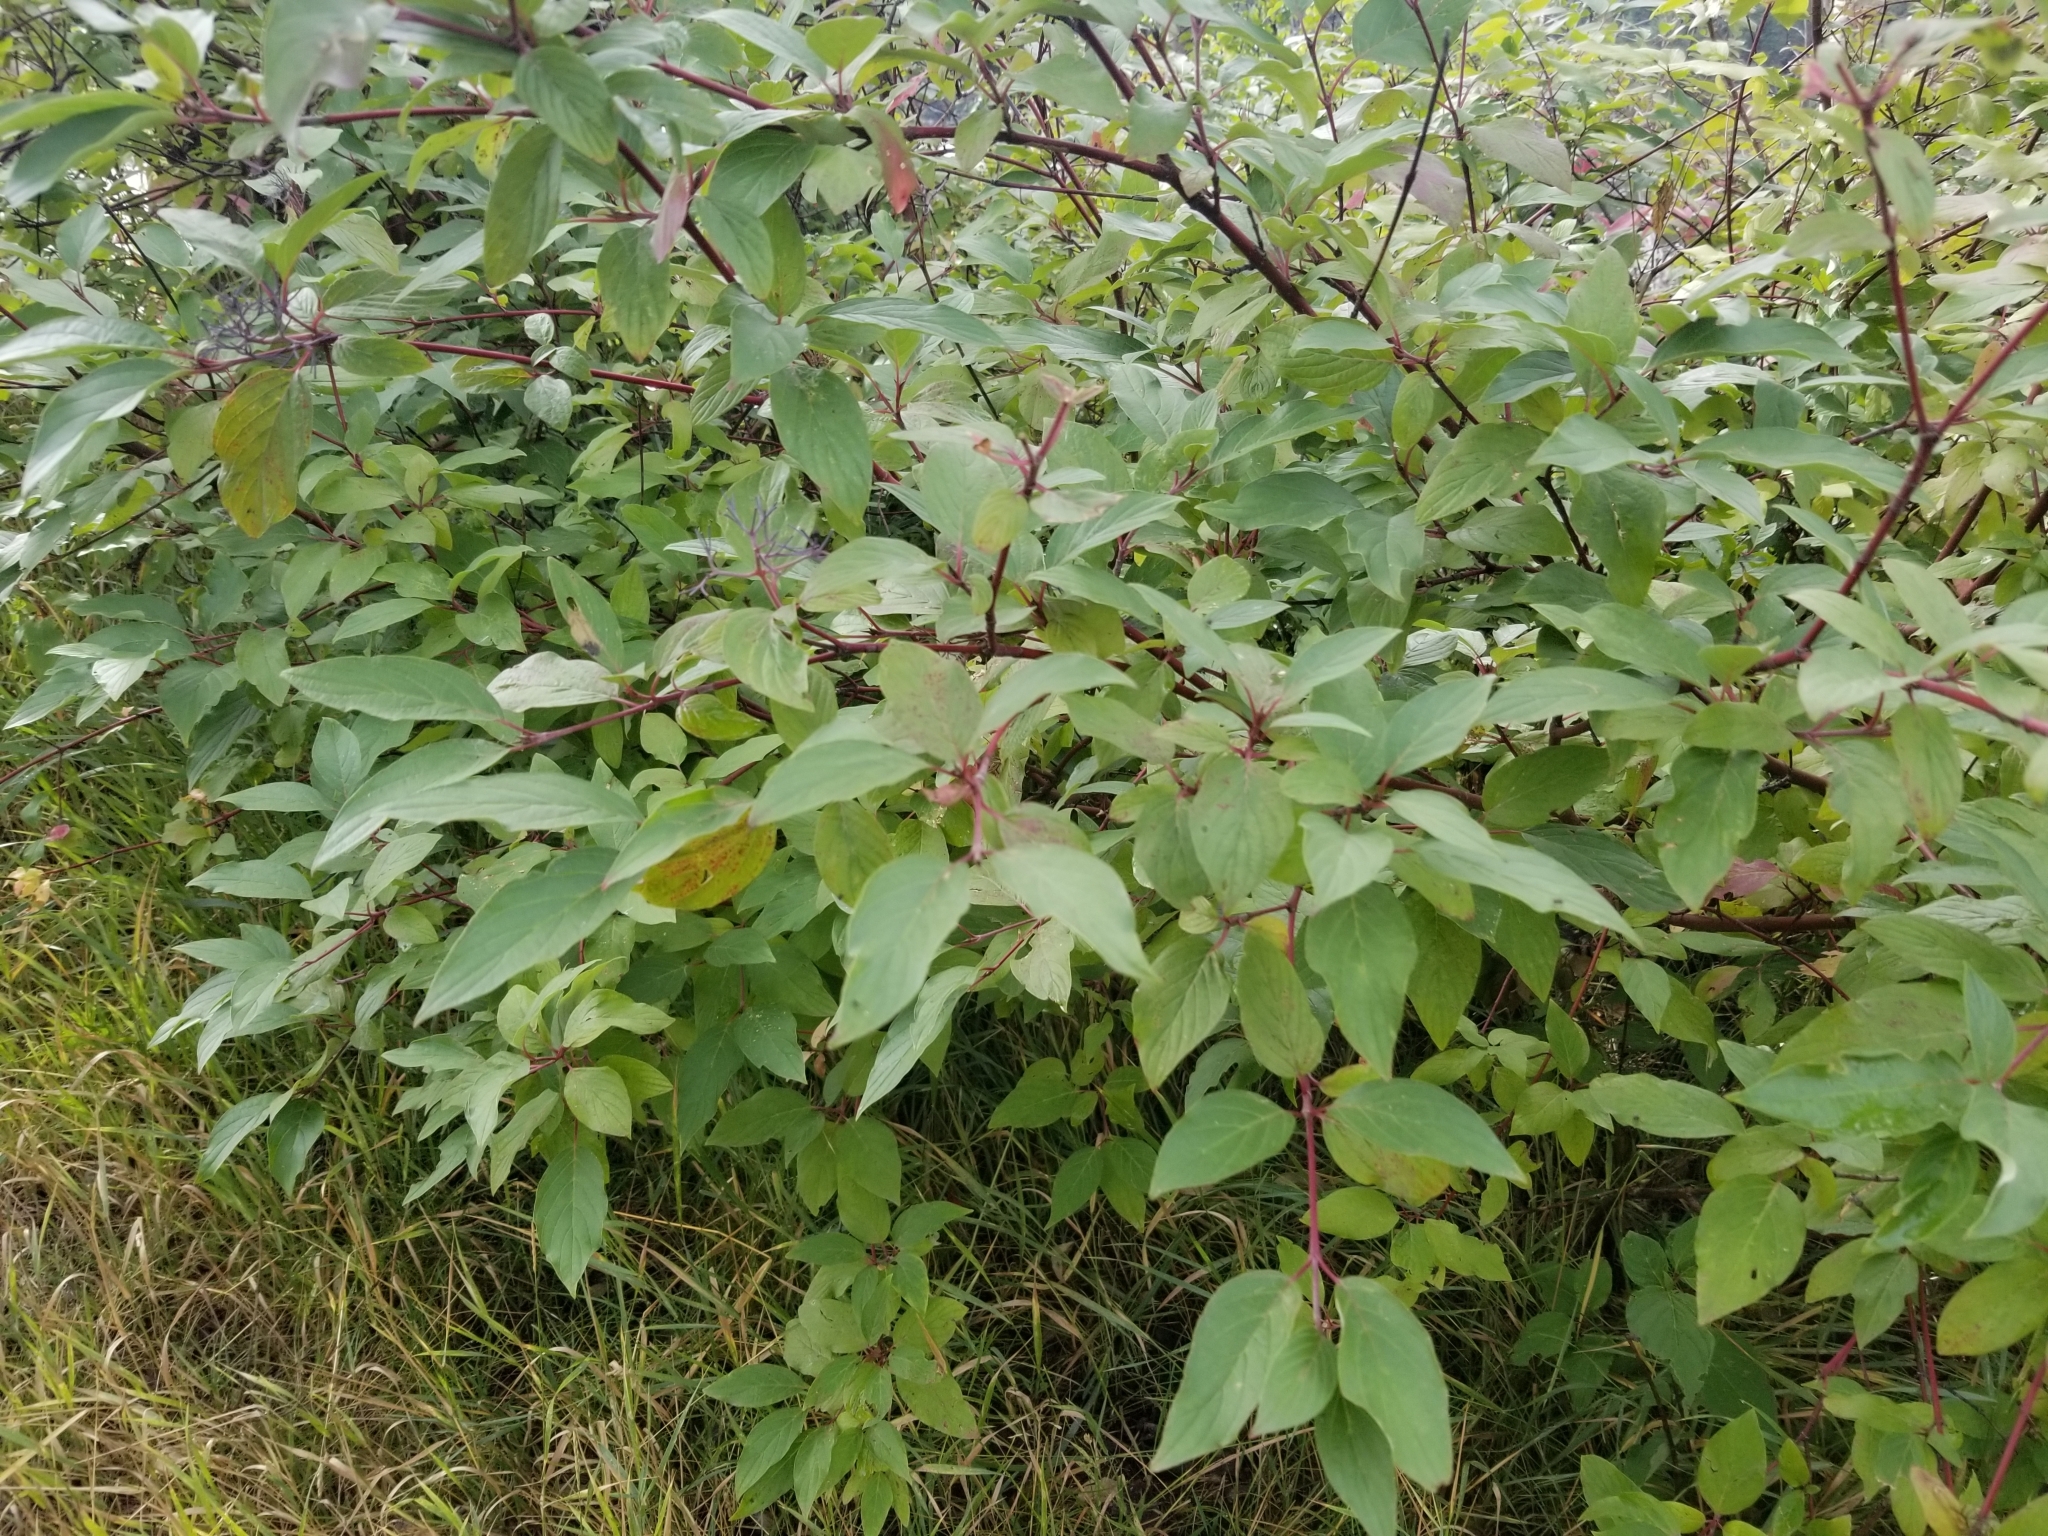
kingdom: Plantae
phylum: Tracheophyta
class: Magnoliopsida
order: Cornales
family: Cornaceae
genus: Cornus
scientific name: Cornus sericea
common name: Red-osier dogwood
